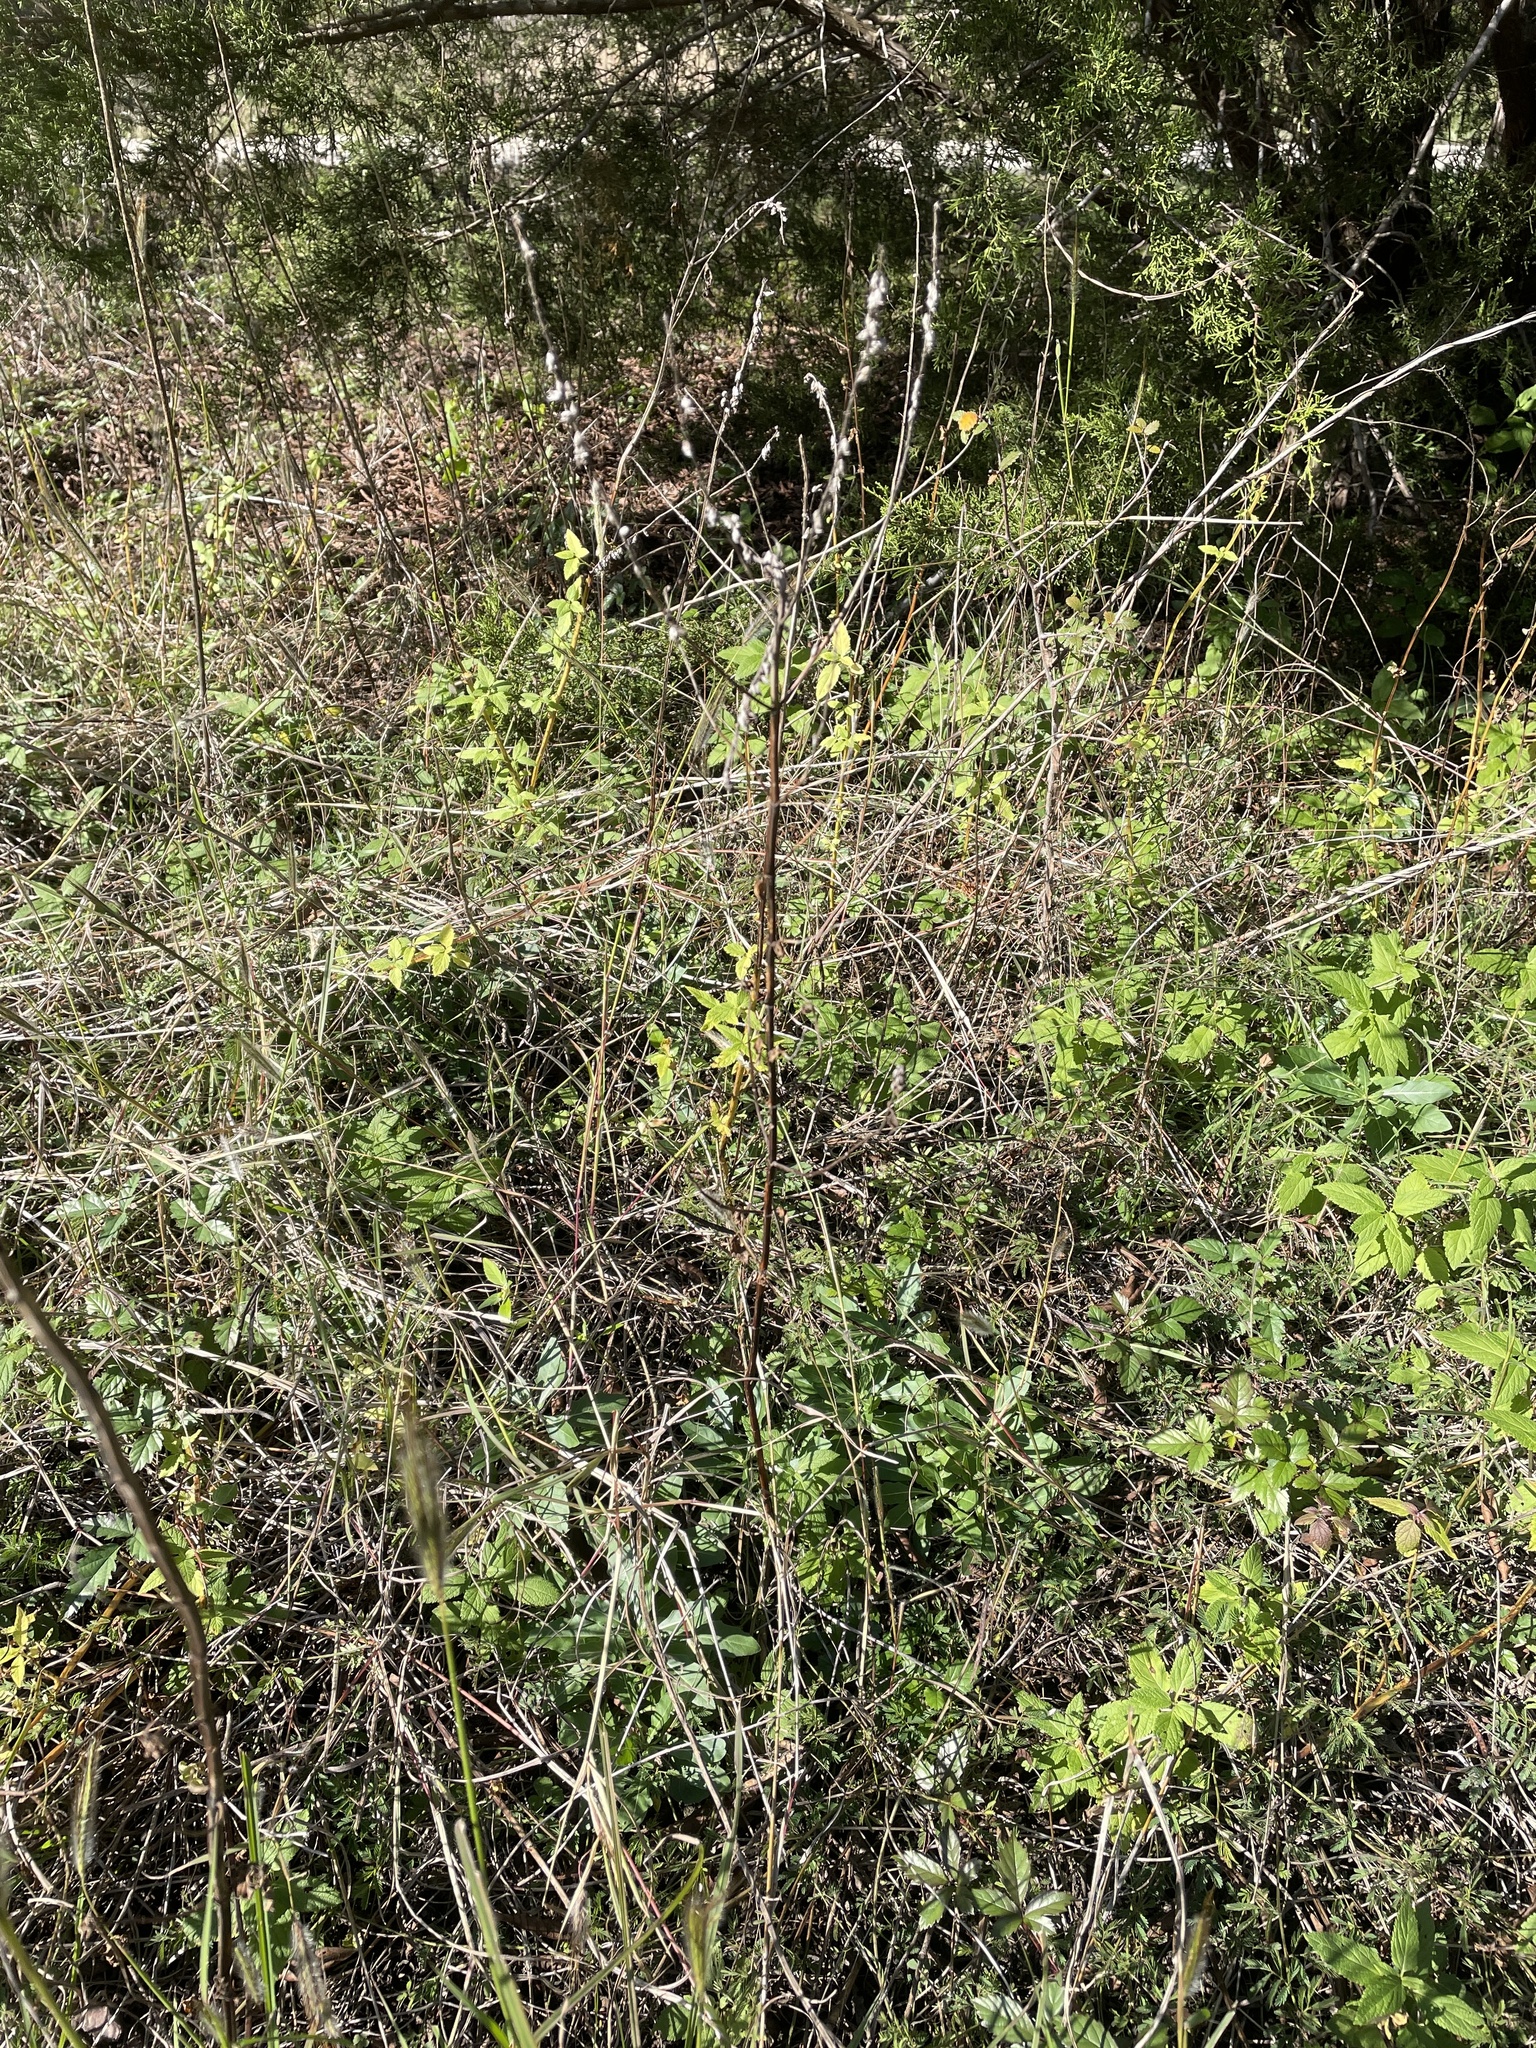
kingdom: Plantae
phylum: Tracheophyta
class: Magnoliopsida
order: Lamiales
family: Lamiaceae
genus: Teucrium
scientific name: Teucrium canadense
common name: American germander
